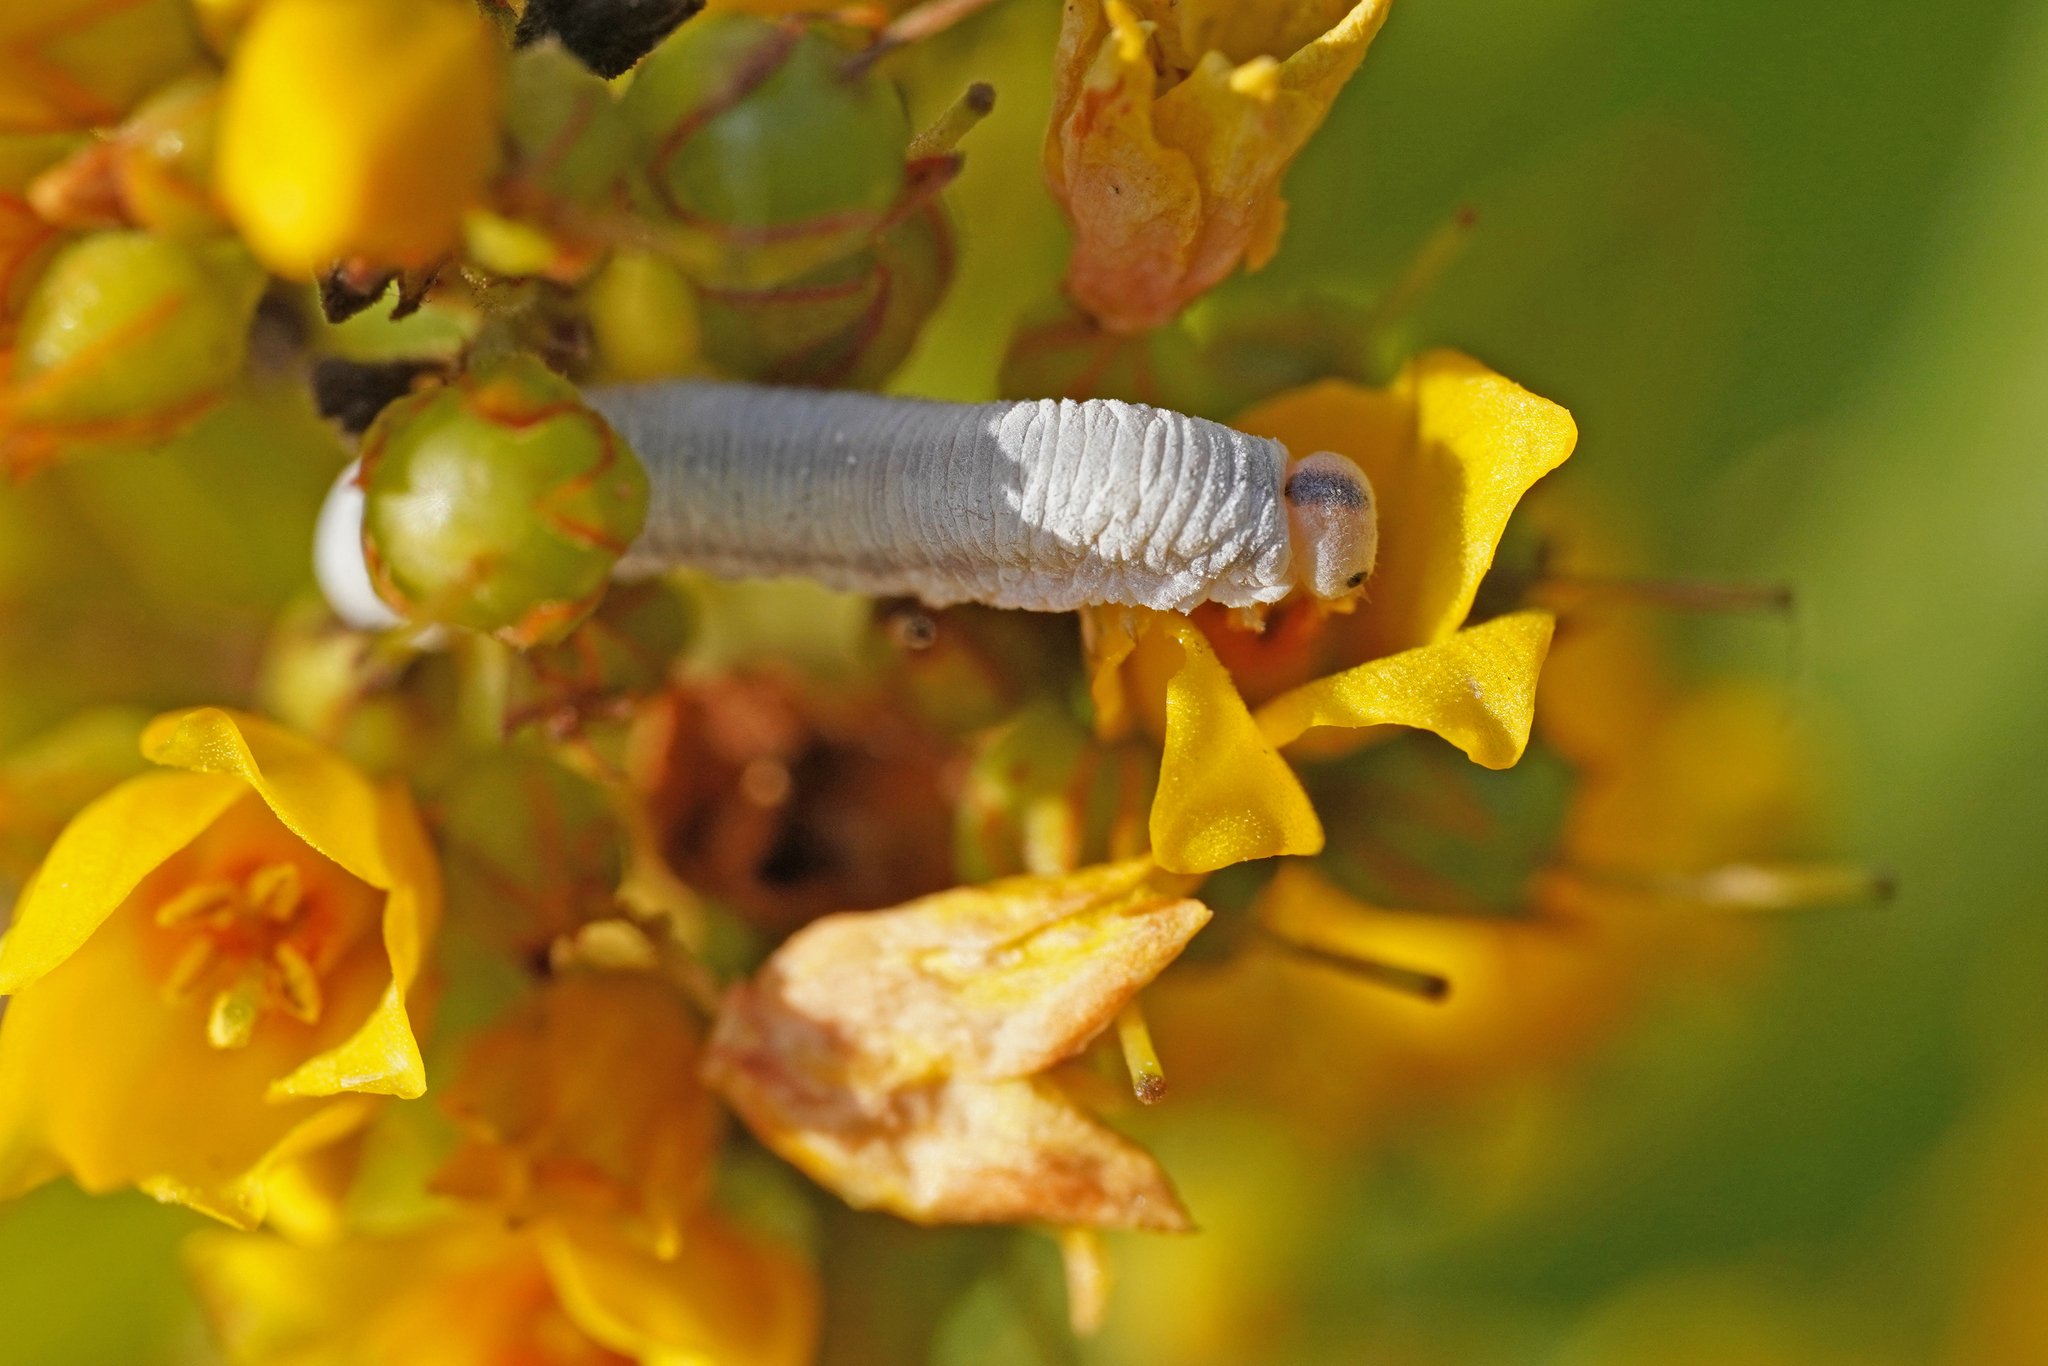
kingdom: Animalia
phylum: Arthropoda
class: Insecta
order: Hymenoptera
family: Tenthredinidae
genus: Monostegia
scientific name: Monostegia abdominalis
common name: Tenthredid wasp
